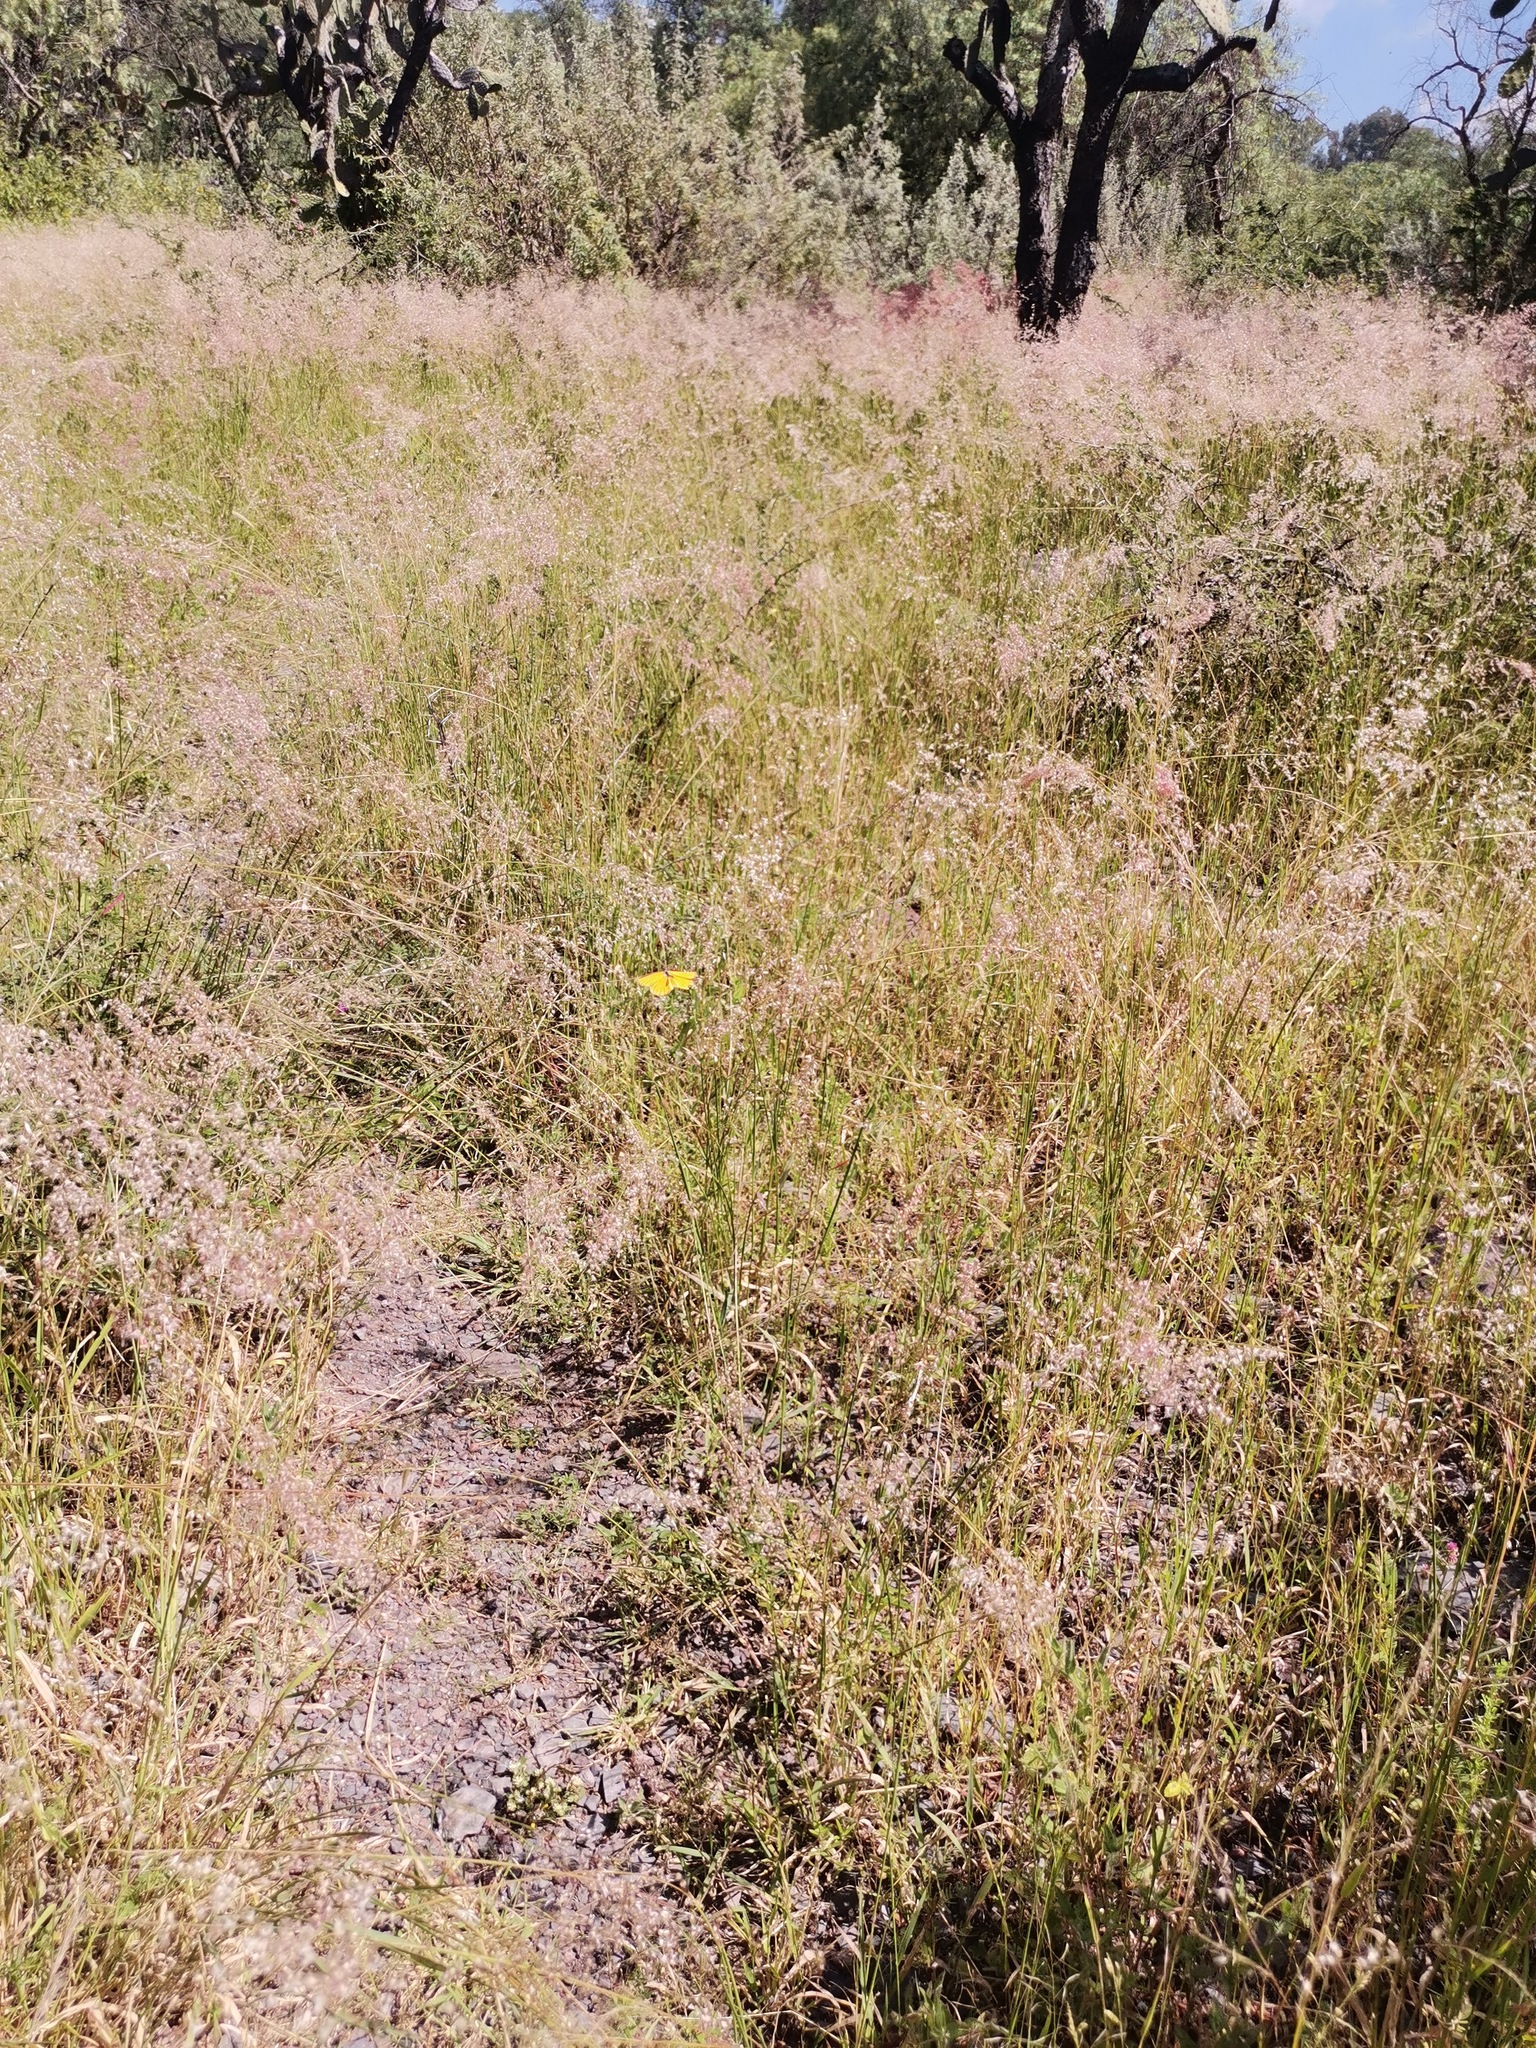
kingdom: Plantae
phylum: Tracheophyta
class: Liliopsida
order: Poales
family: Poaceae
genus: Melinis
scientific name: Melinis repens
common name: Rose natal grass
